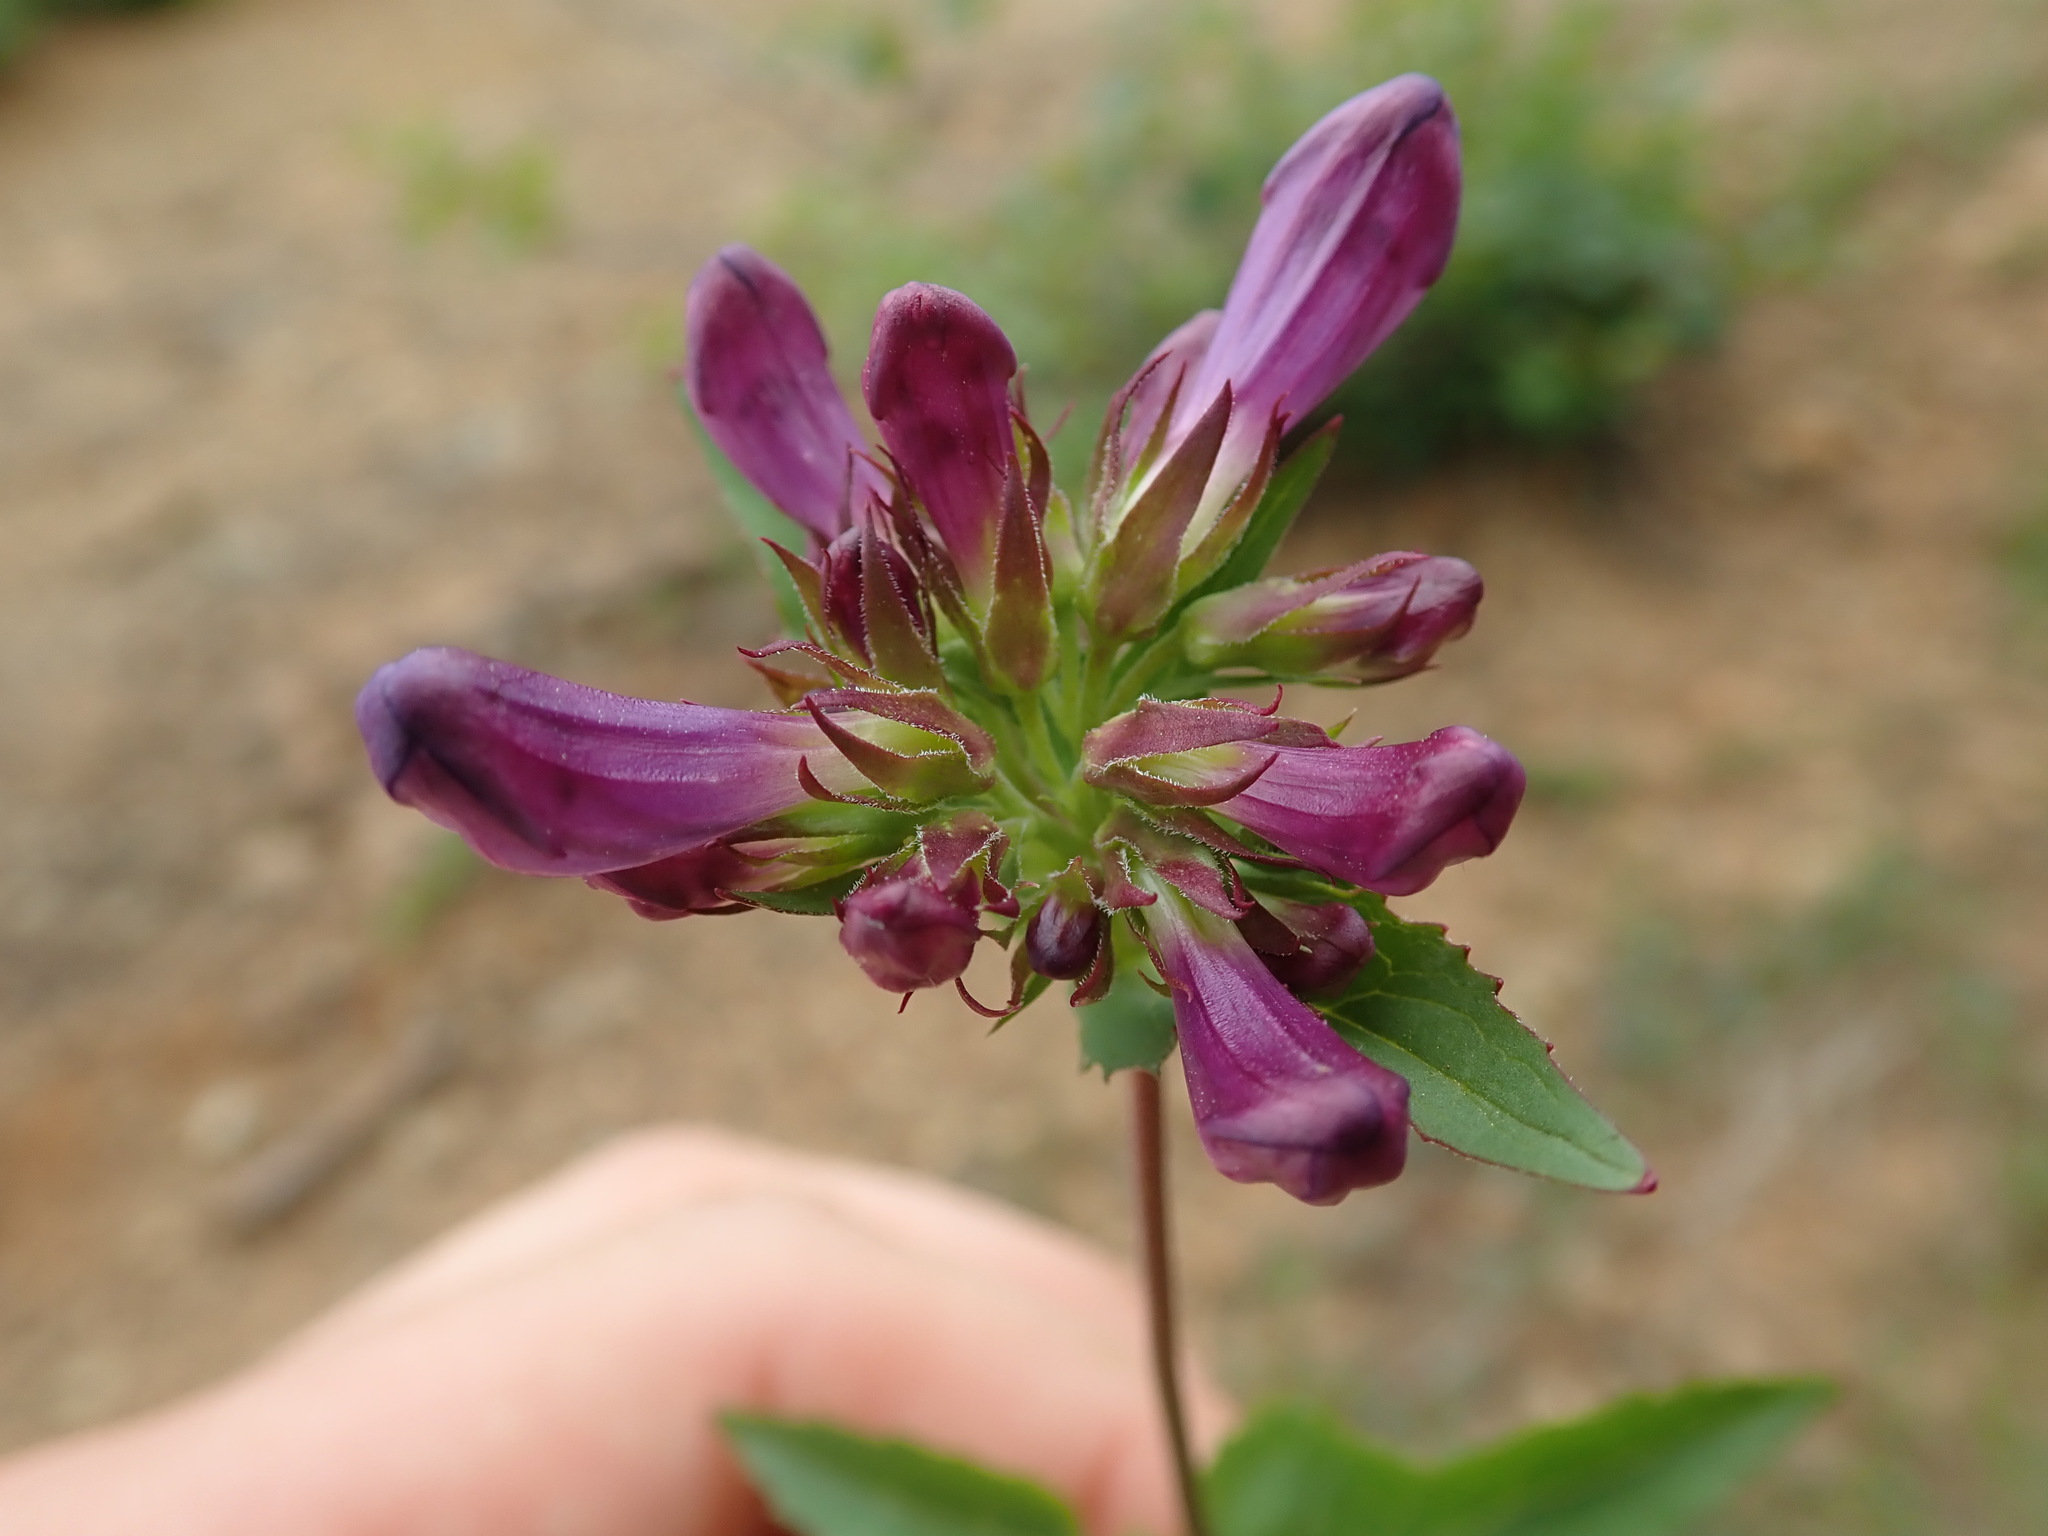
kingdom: Plantae
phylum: Tracheophyta
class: Magnoliopsida
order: Lamiales
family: Plantaginaceae
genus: Penstemon
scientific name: Penstemon serrulatus
